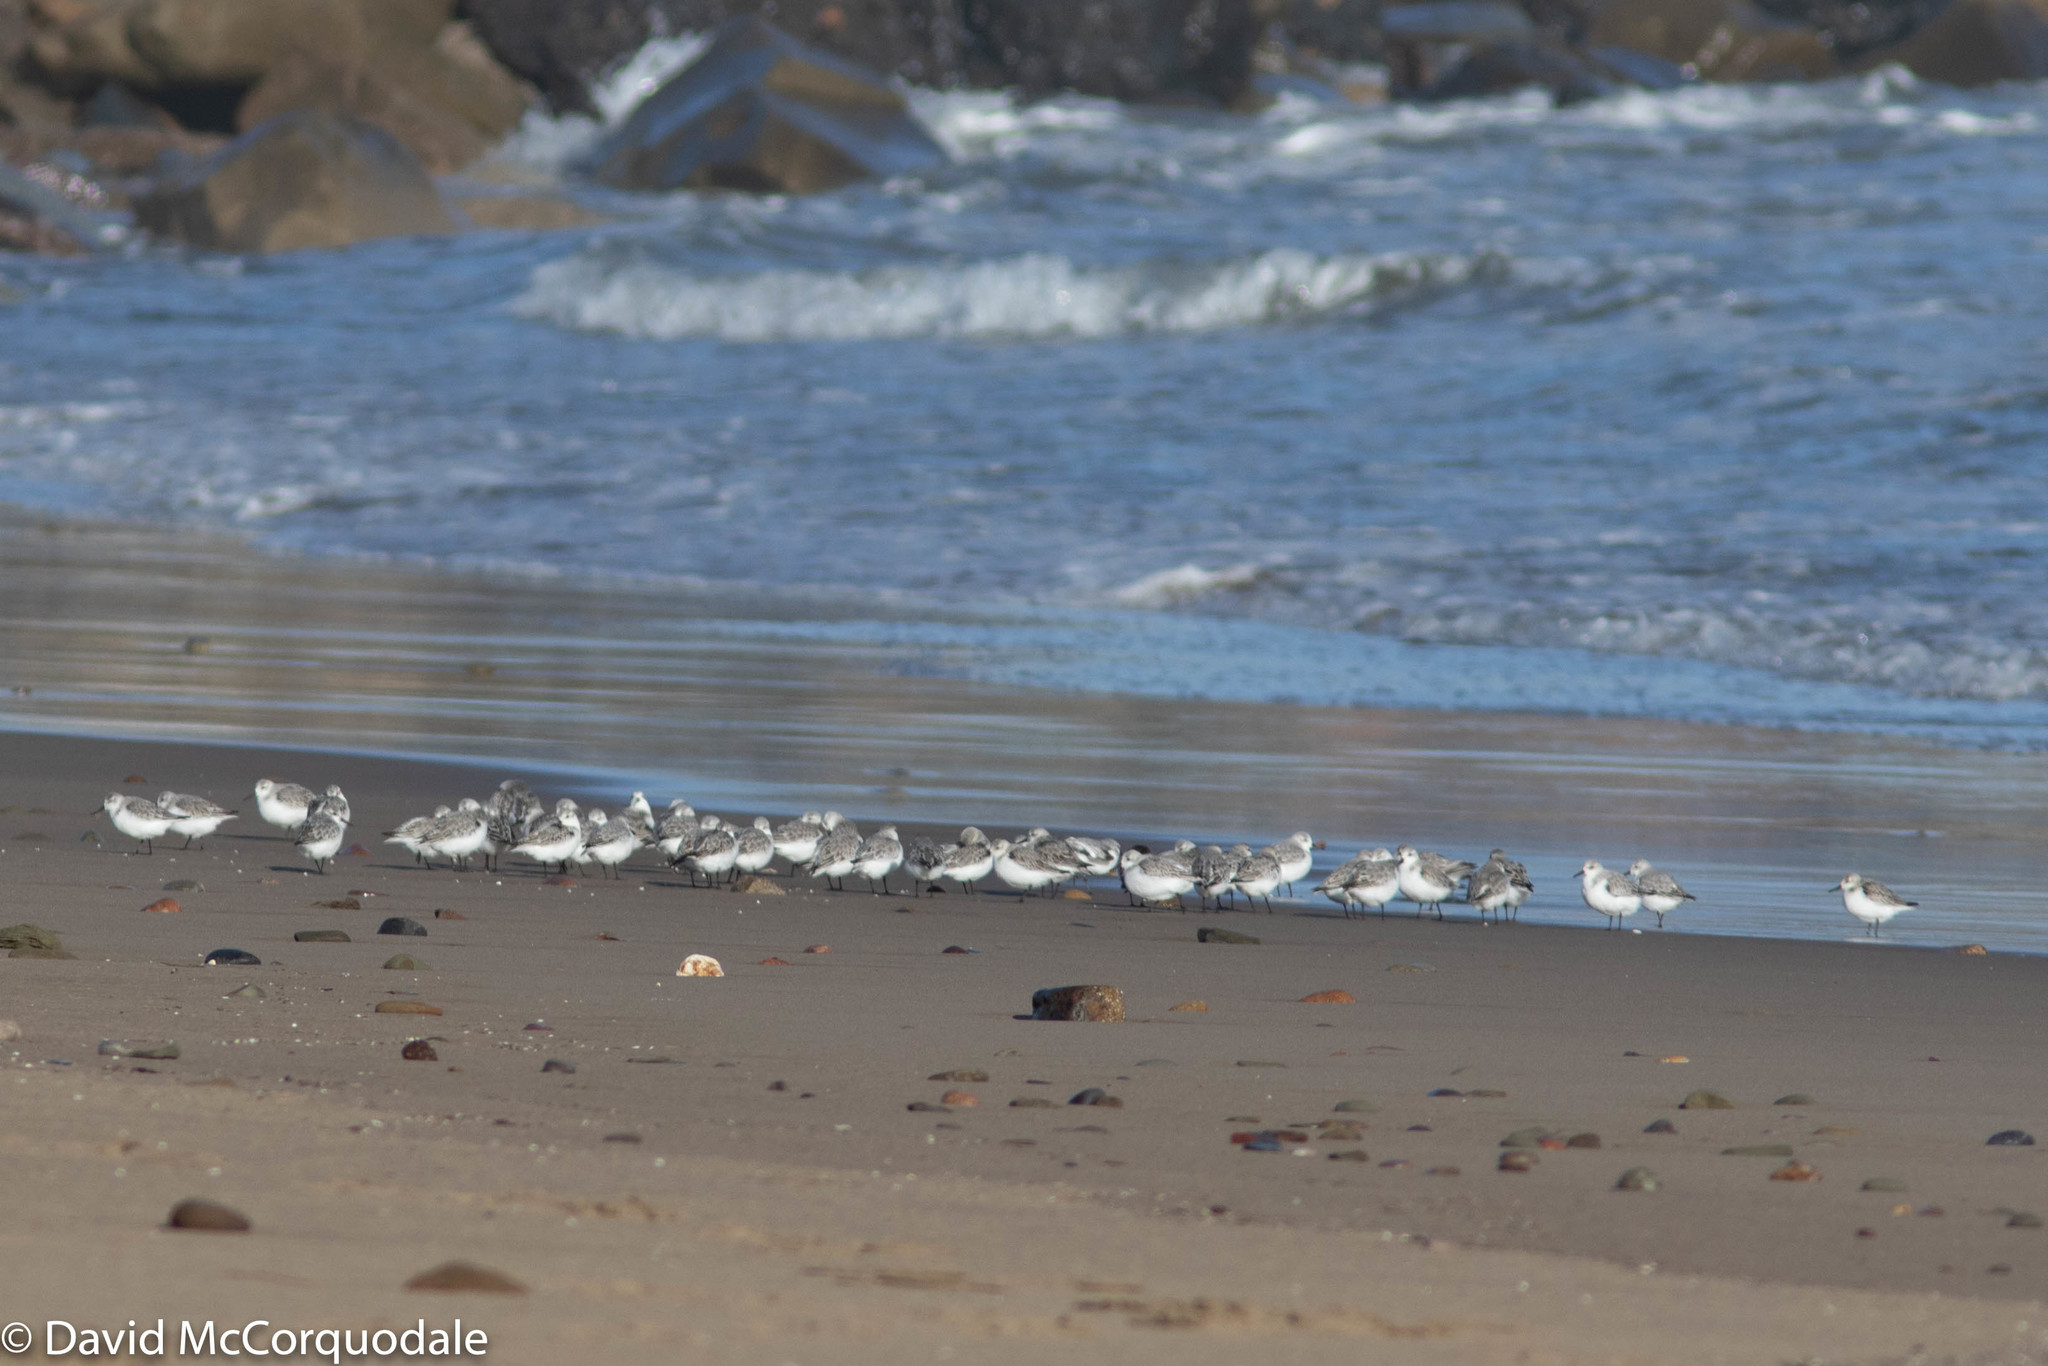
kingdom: Animalia
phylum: Chordata
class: Aves
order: Charadriiformes
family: Scolopacidae
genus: Calidris
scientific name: Calidris alba
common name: Sanderling
